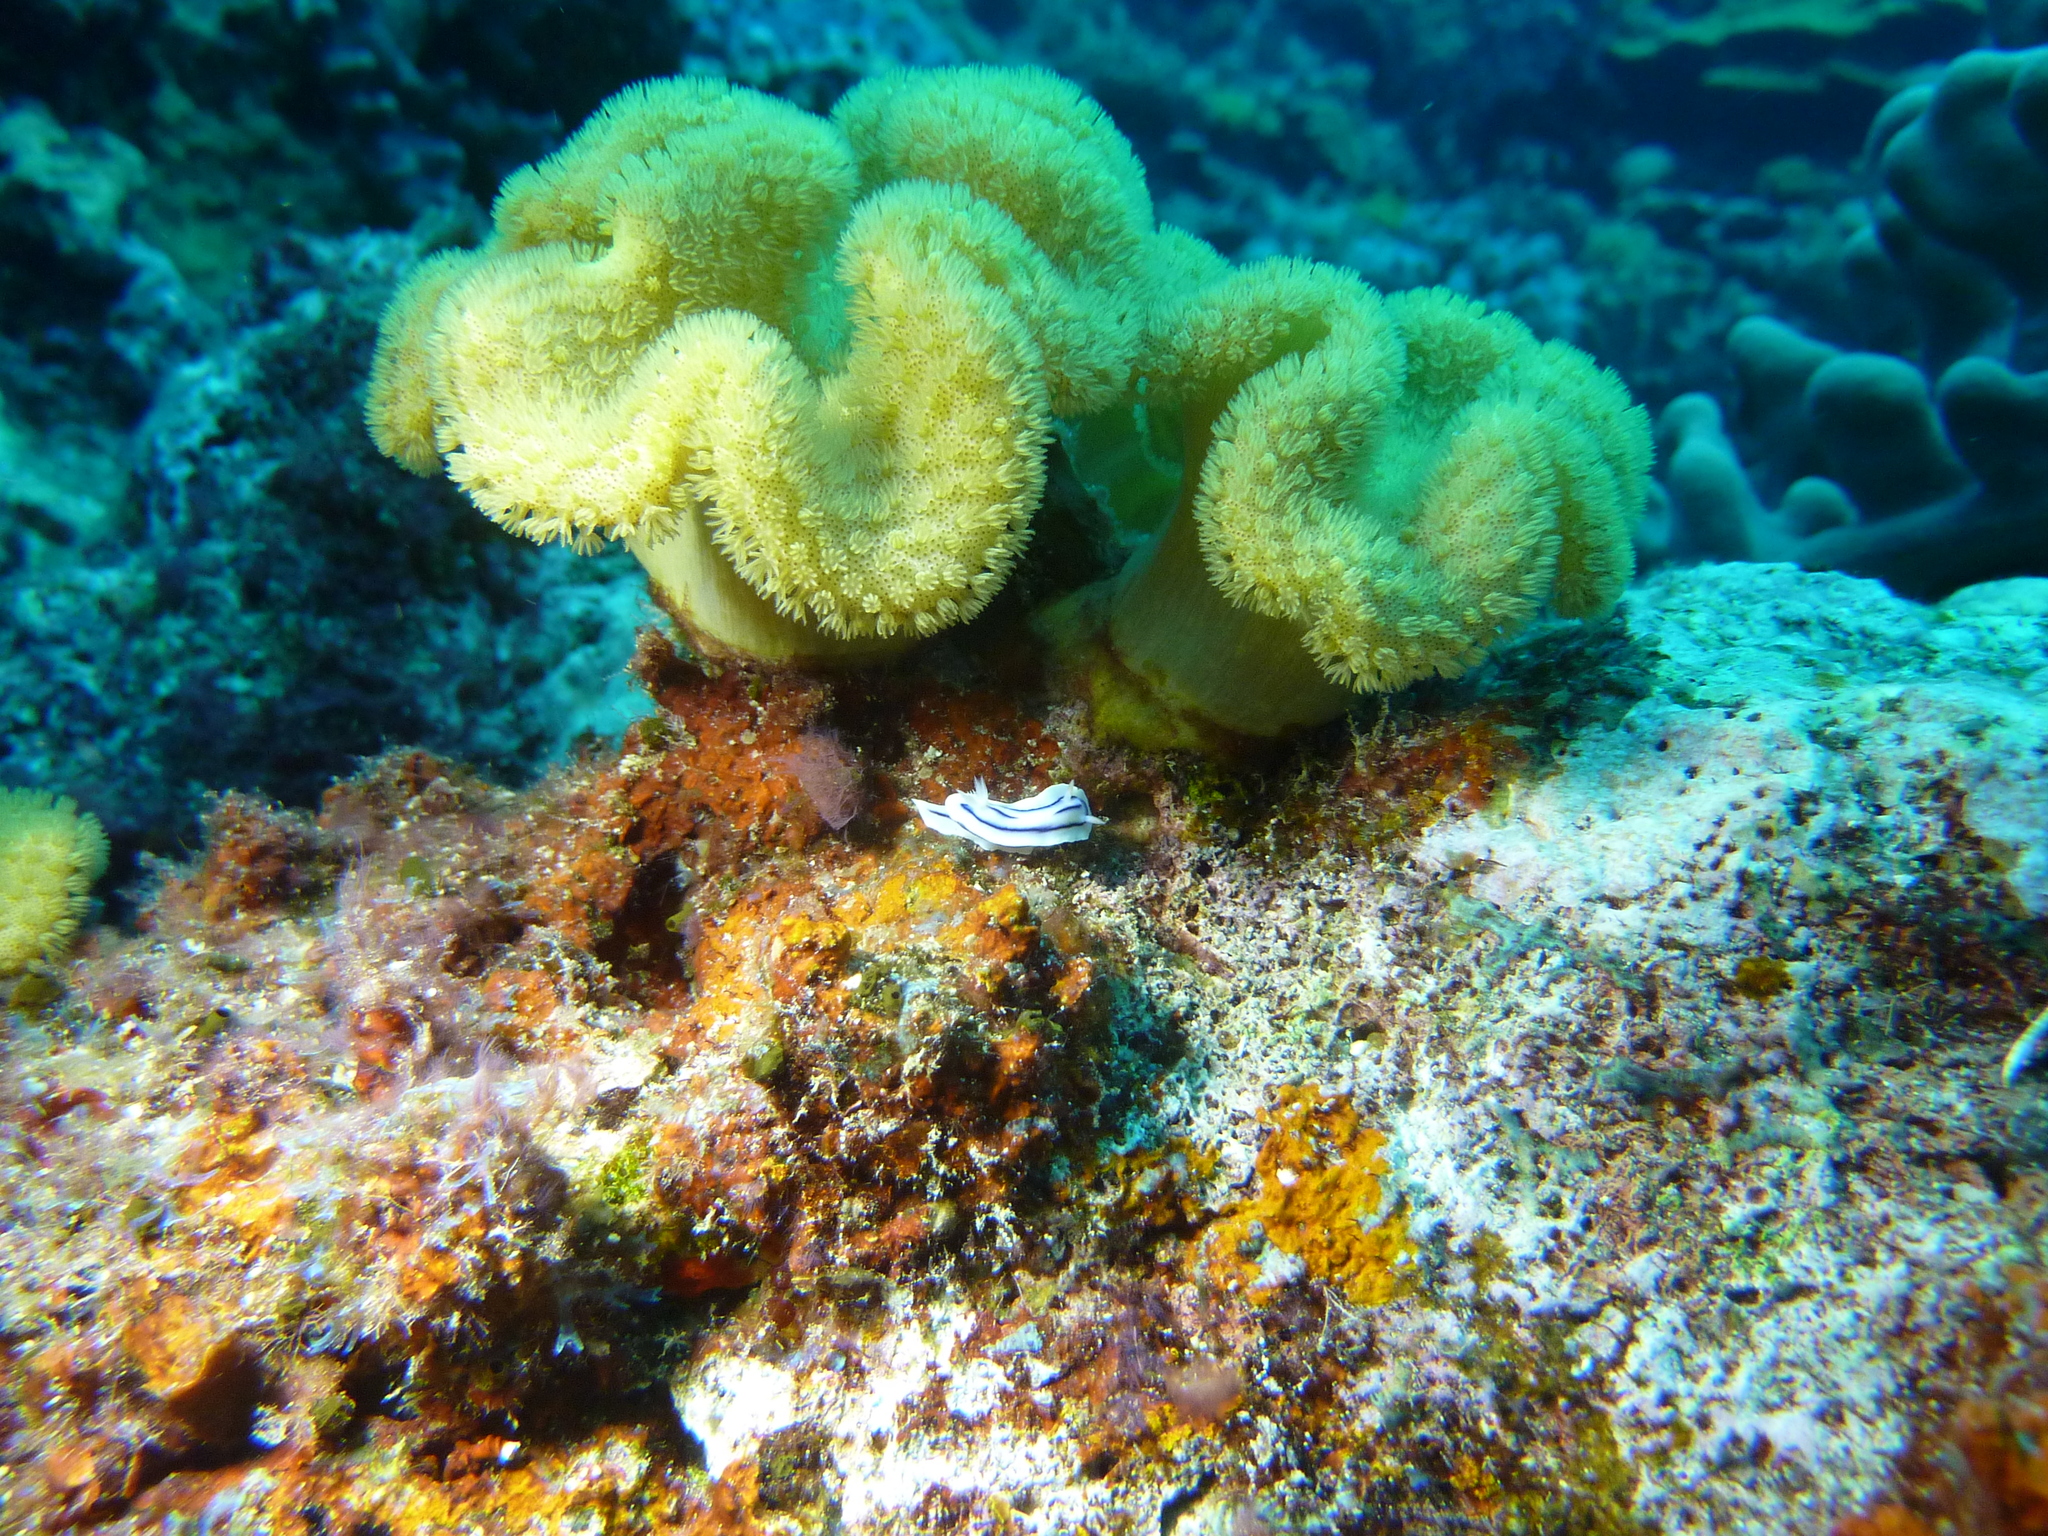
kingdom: Animalia
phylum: Mollusca
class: Gastropoda
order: Nudibranchia
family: Chromodorididae
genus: Chromodoris
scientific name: Chromodoris willani
